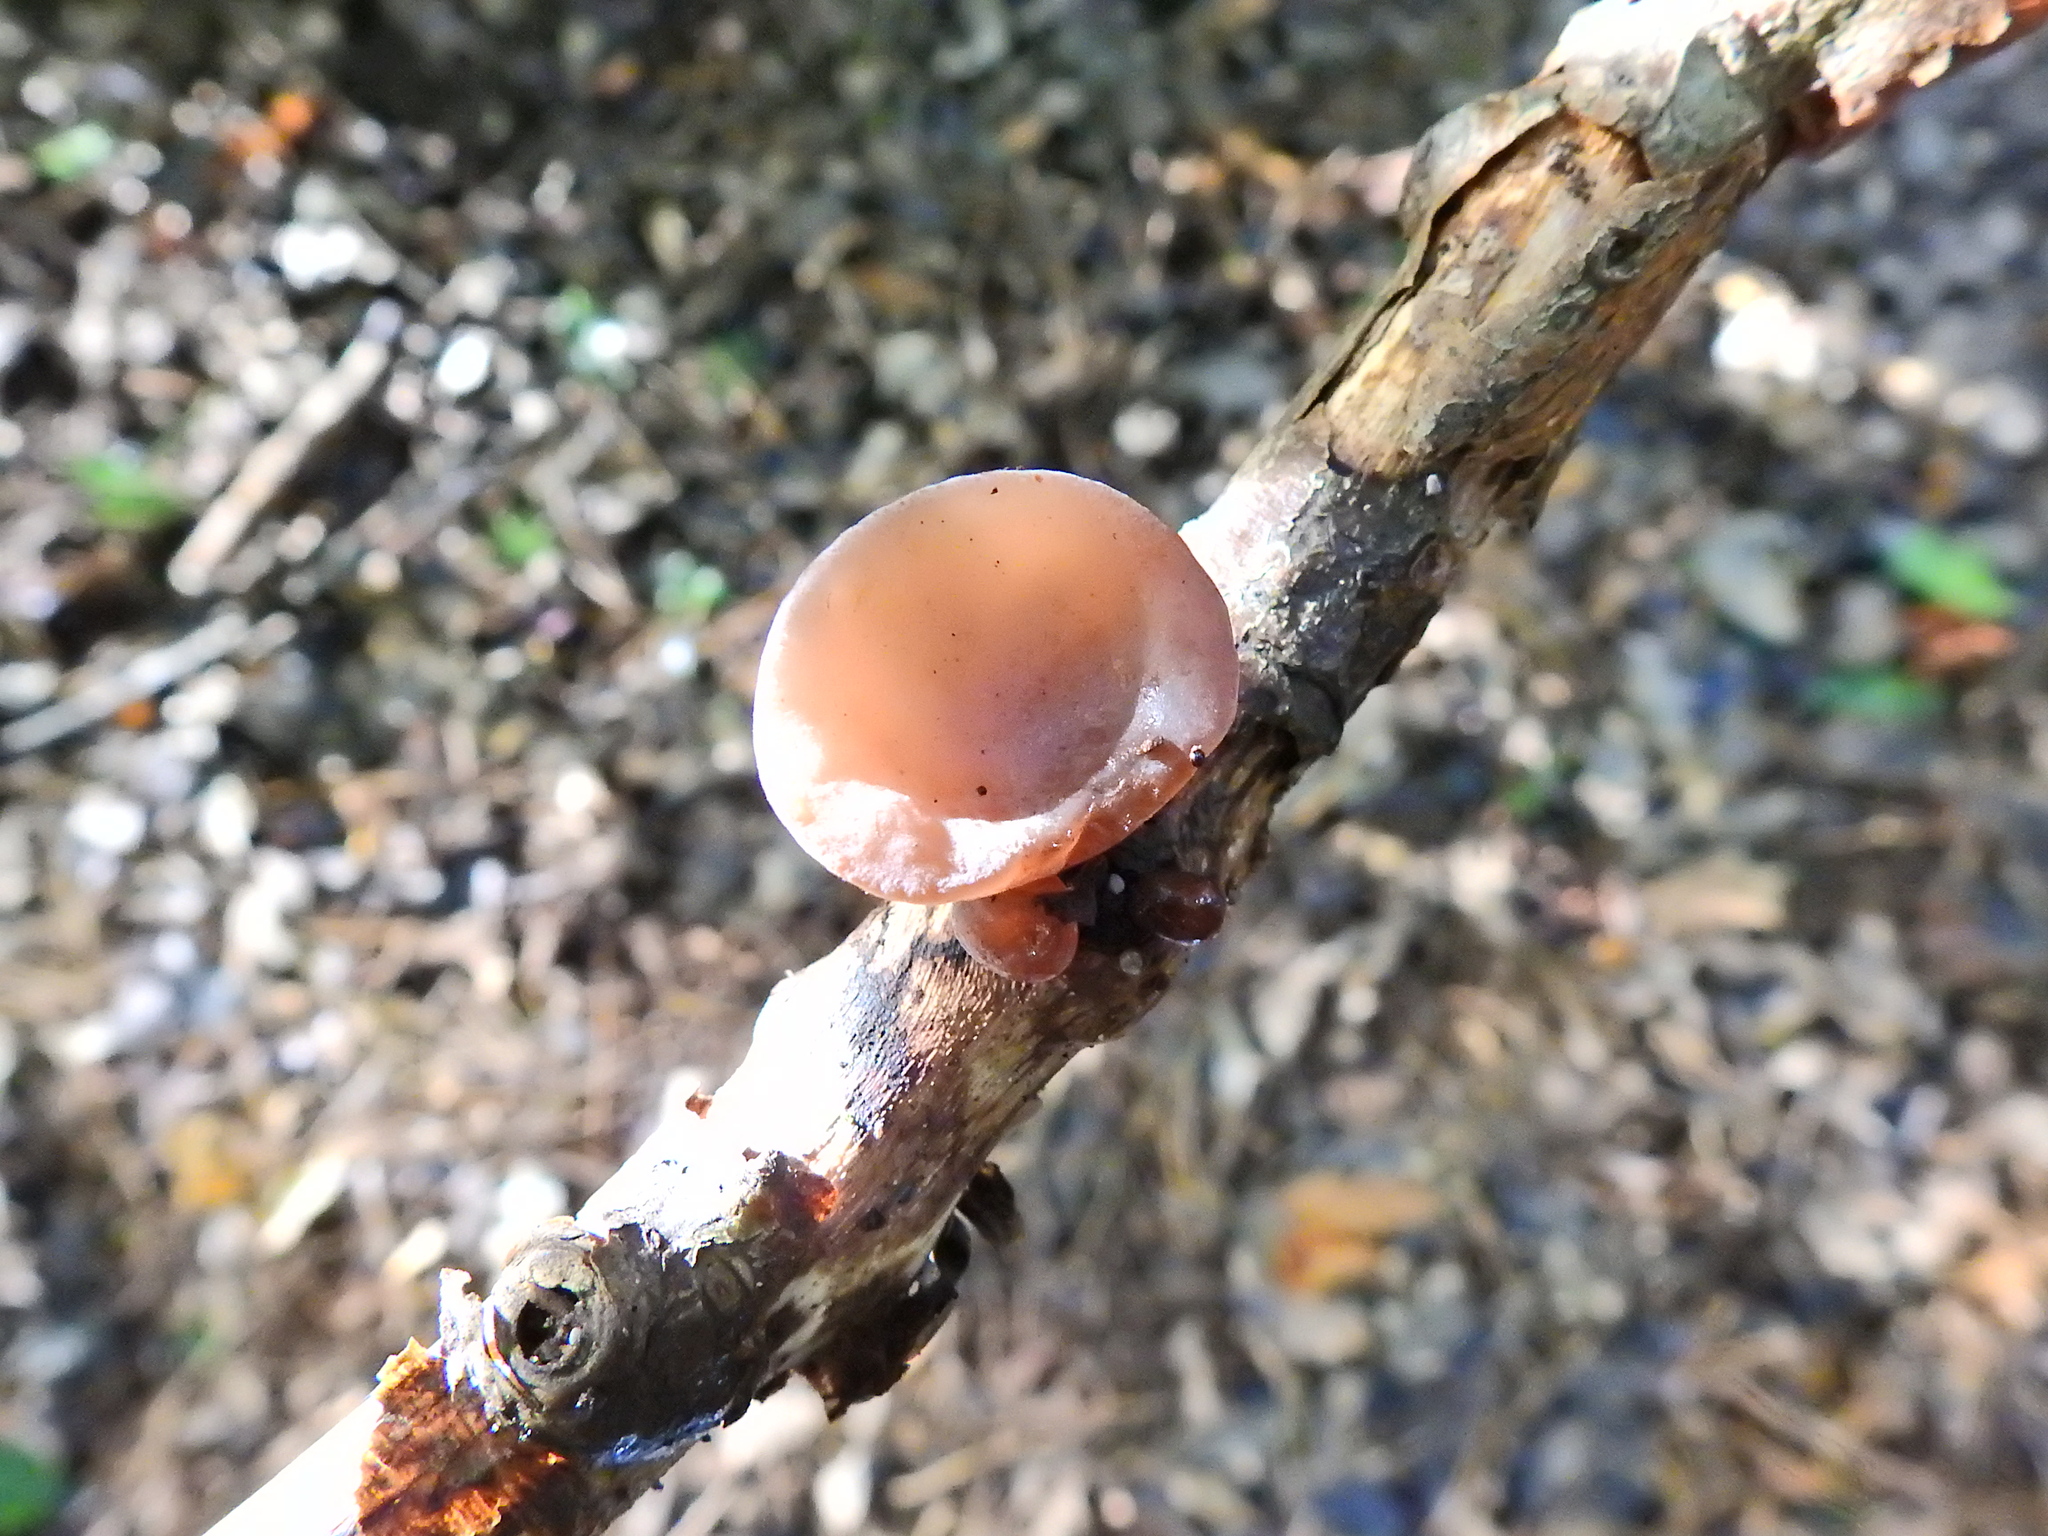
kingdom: Fungi
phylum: Basidiomycota
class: Agaricomycetes
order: Auriculariales
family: Auriculariaceae
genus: Auricularia
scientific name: Auricularia auricula-judae
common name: Jelly ear
